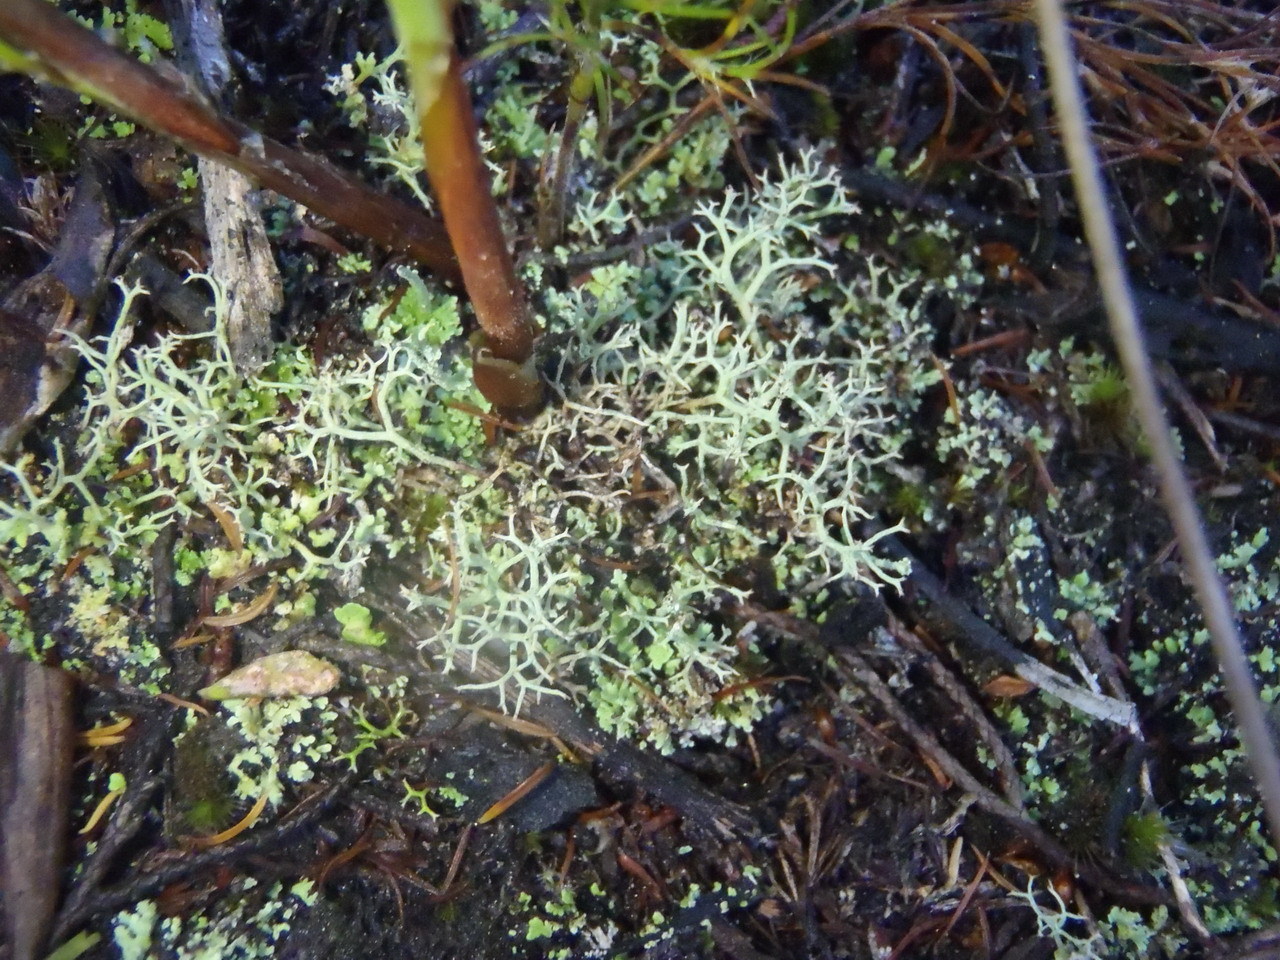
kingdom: Fungi
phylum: Ascomycota
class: Lecanoromycetes
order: Lecanorales
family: Cladoniaceae
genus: Cladonia
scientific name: Cladonia
